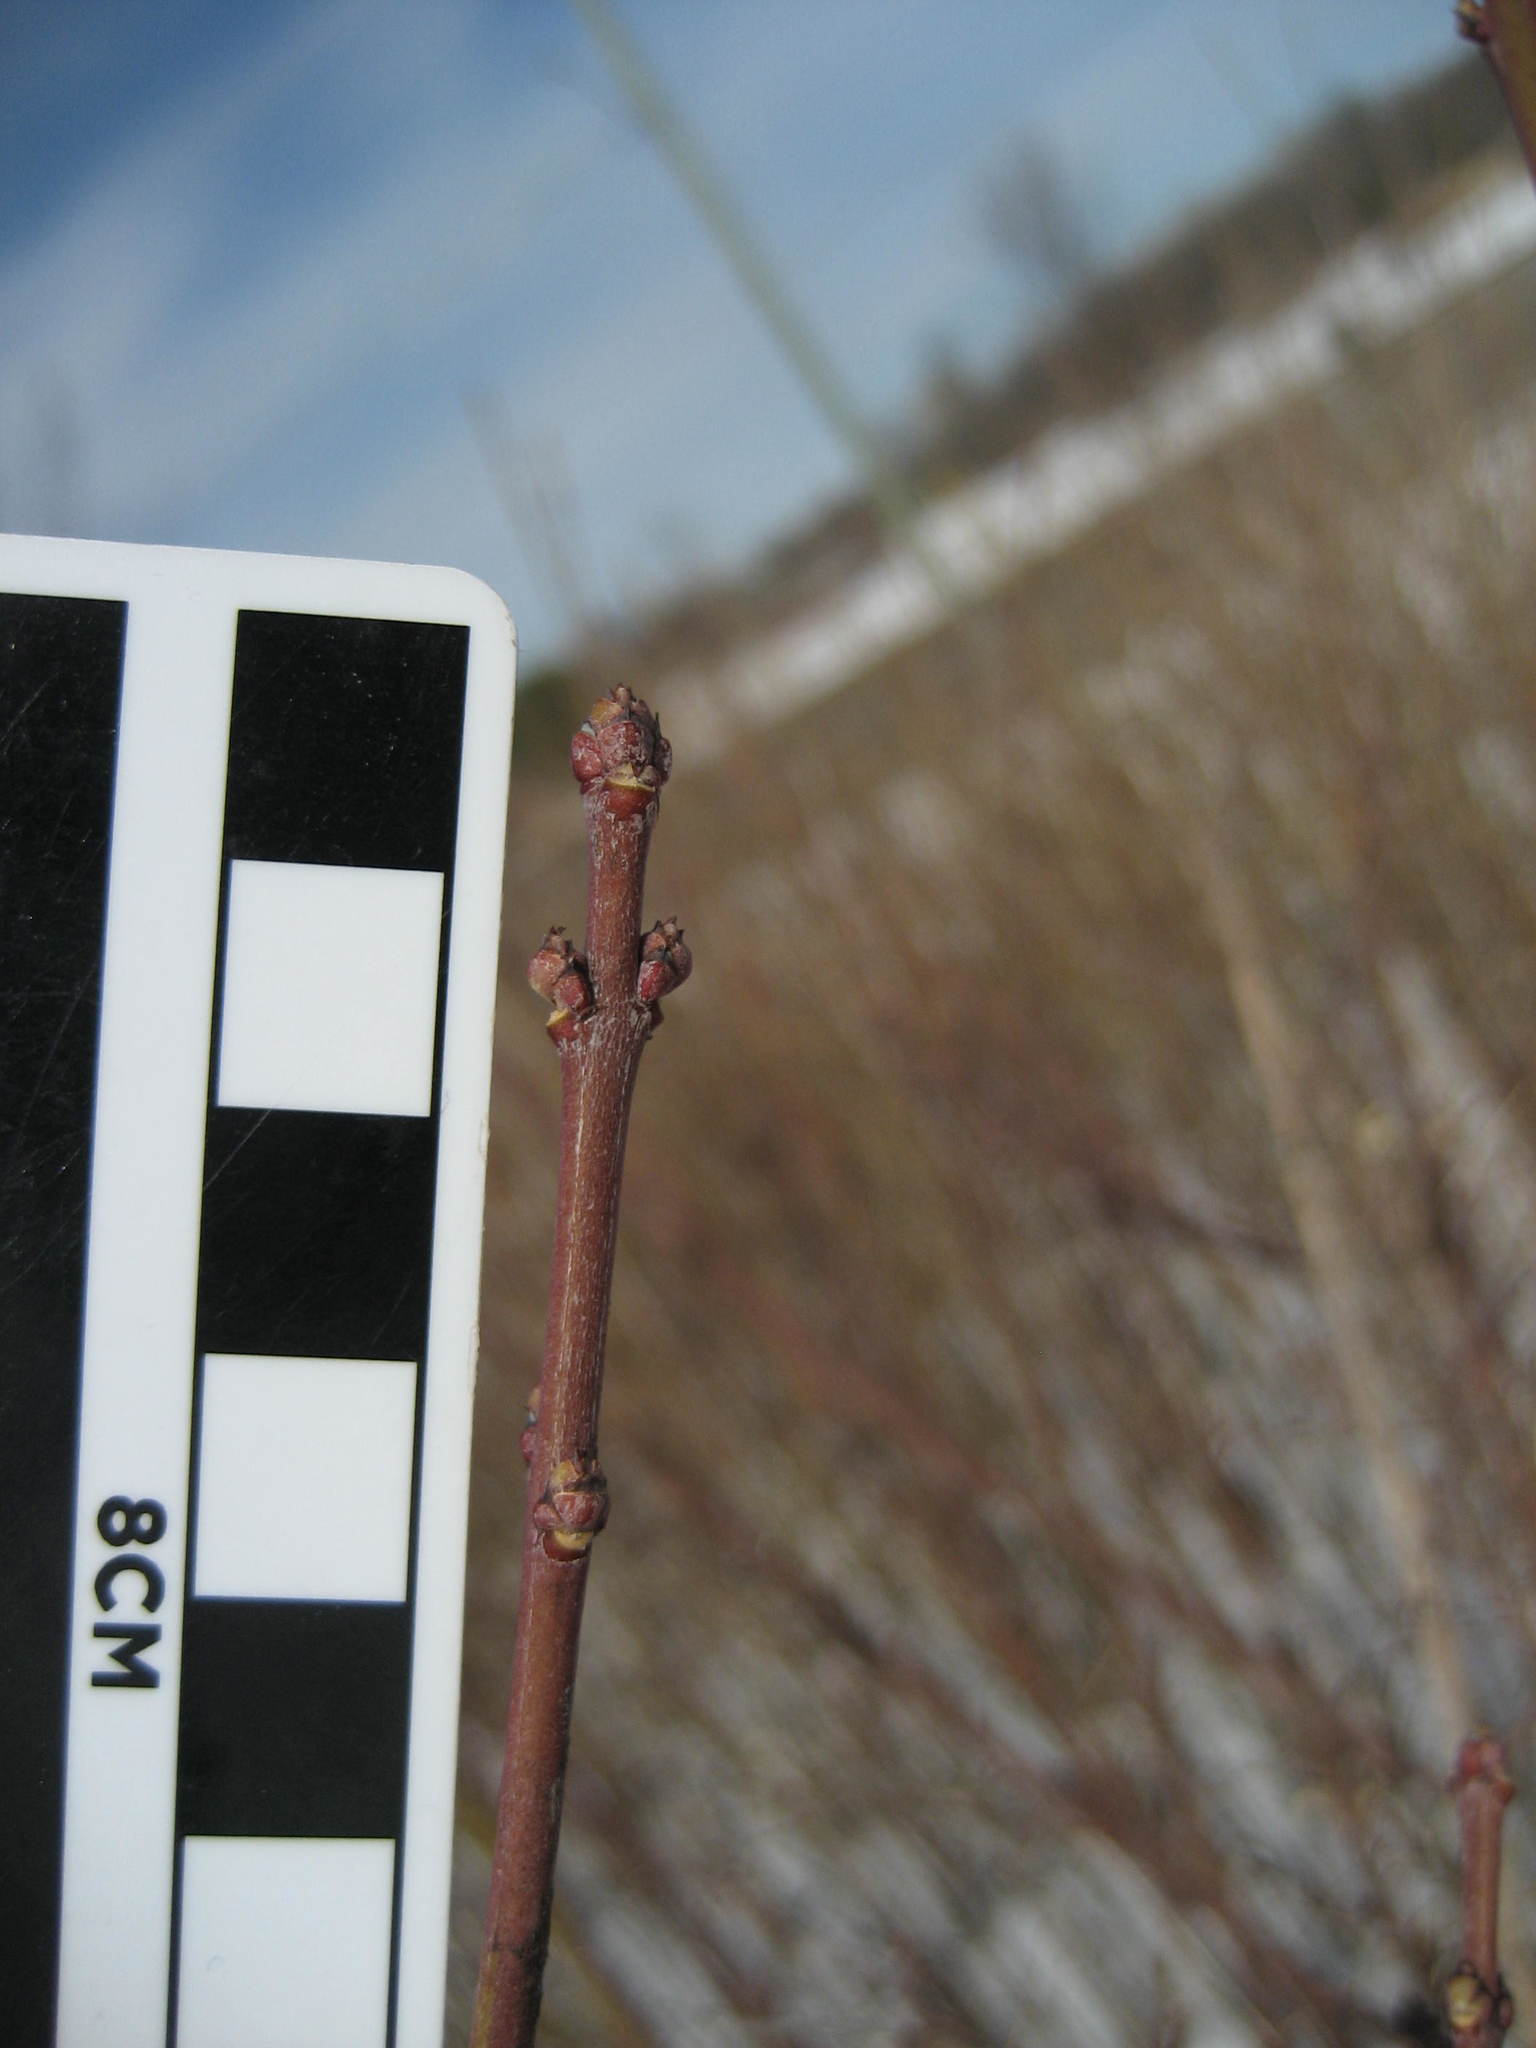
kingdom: Plantae
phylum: Tracheophyta
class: Magnoliopsida
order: Celastrales
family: Celastraceae
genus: Euonymus
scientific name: Euonymus europaeus
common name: Spindle
